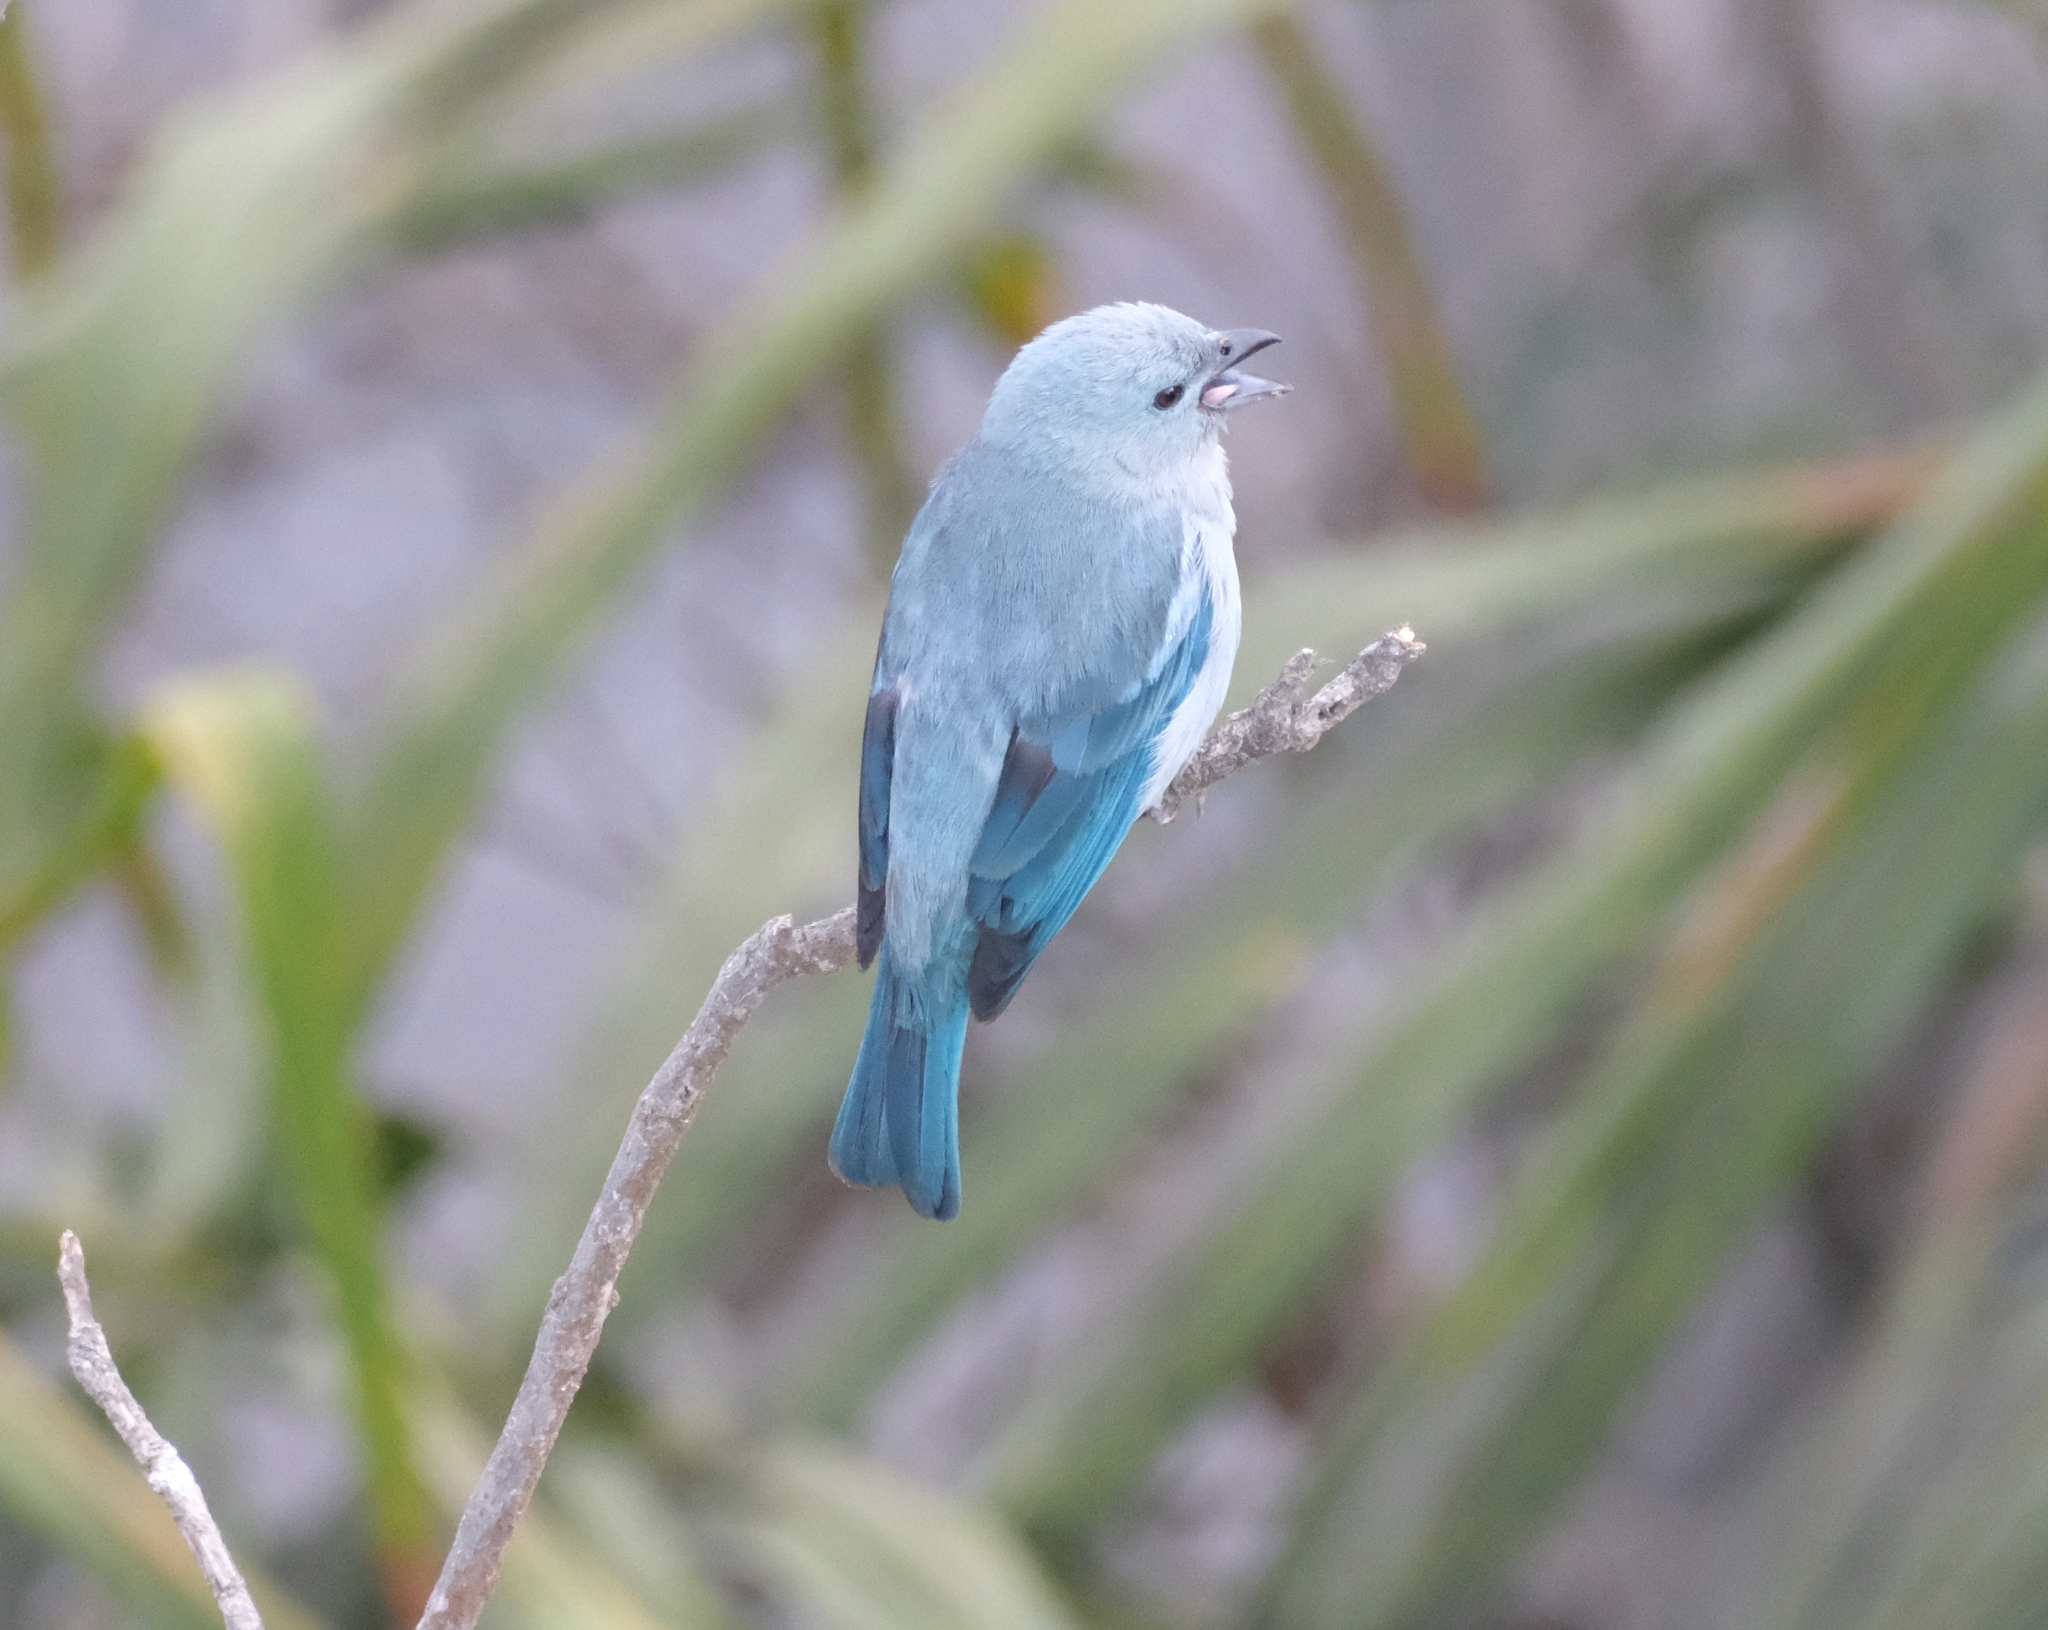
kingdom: Animalia
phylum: Chordata
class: Aves
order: Passeriformes
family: Thraupidae
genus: Thraupis
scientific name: Thraupis episcopus
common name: Blue-grey tanager
